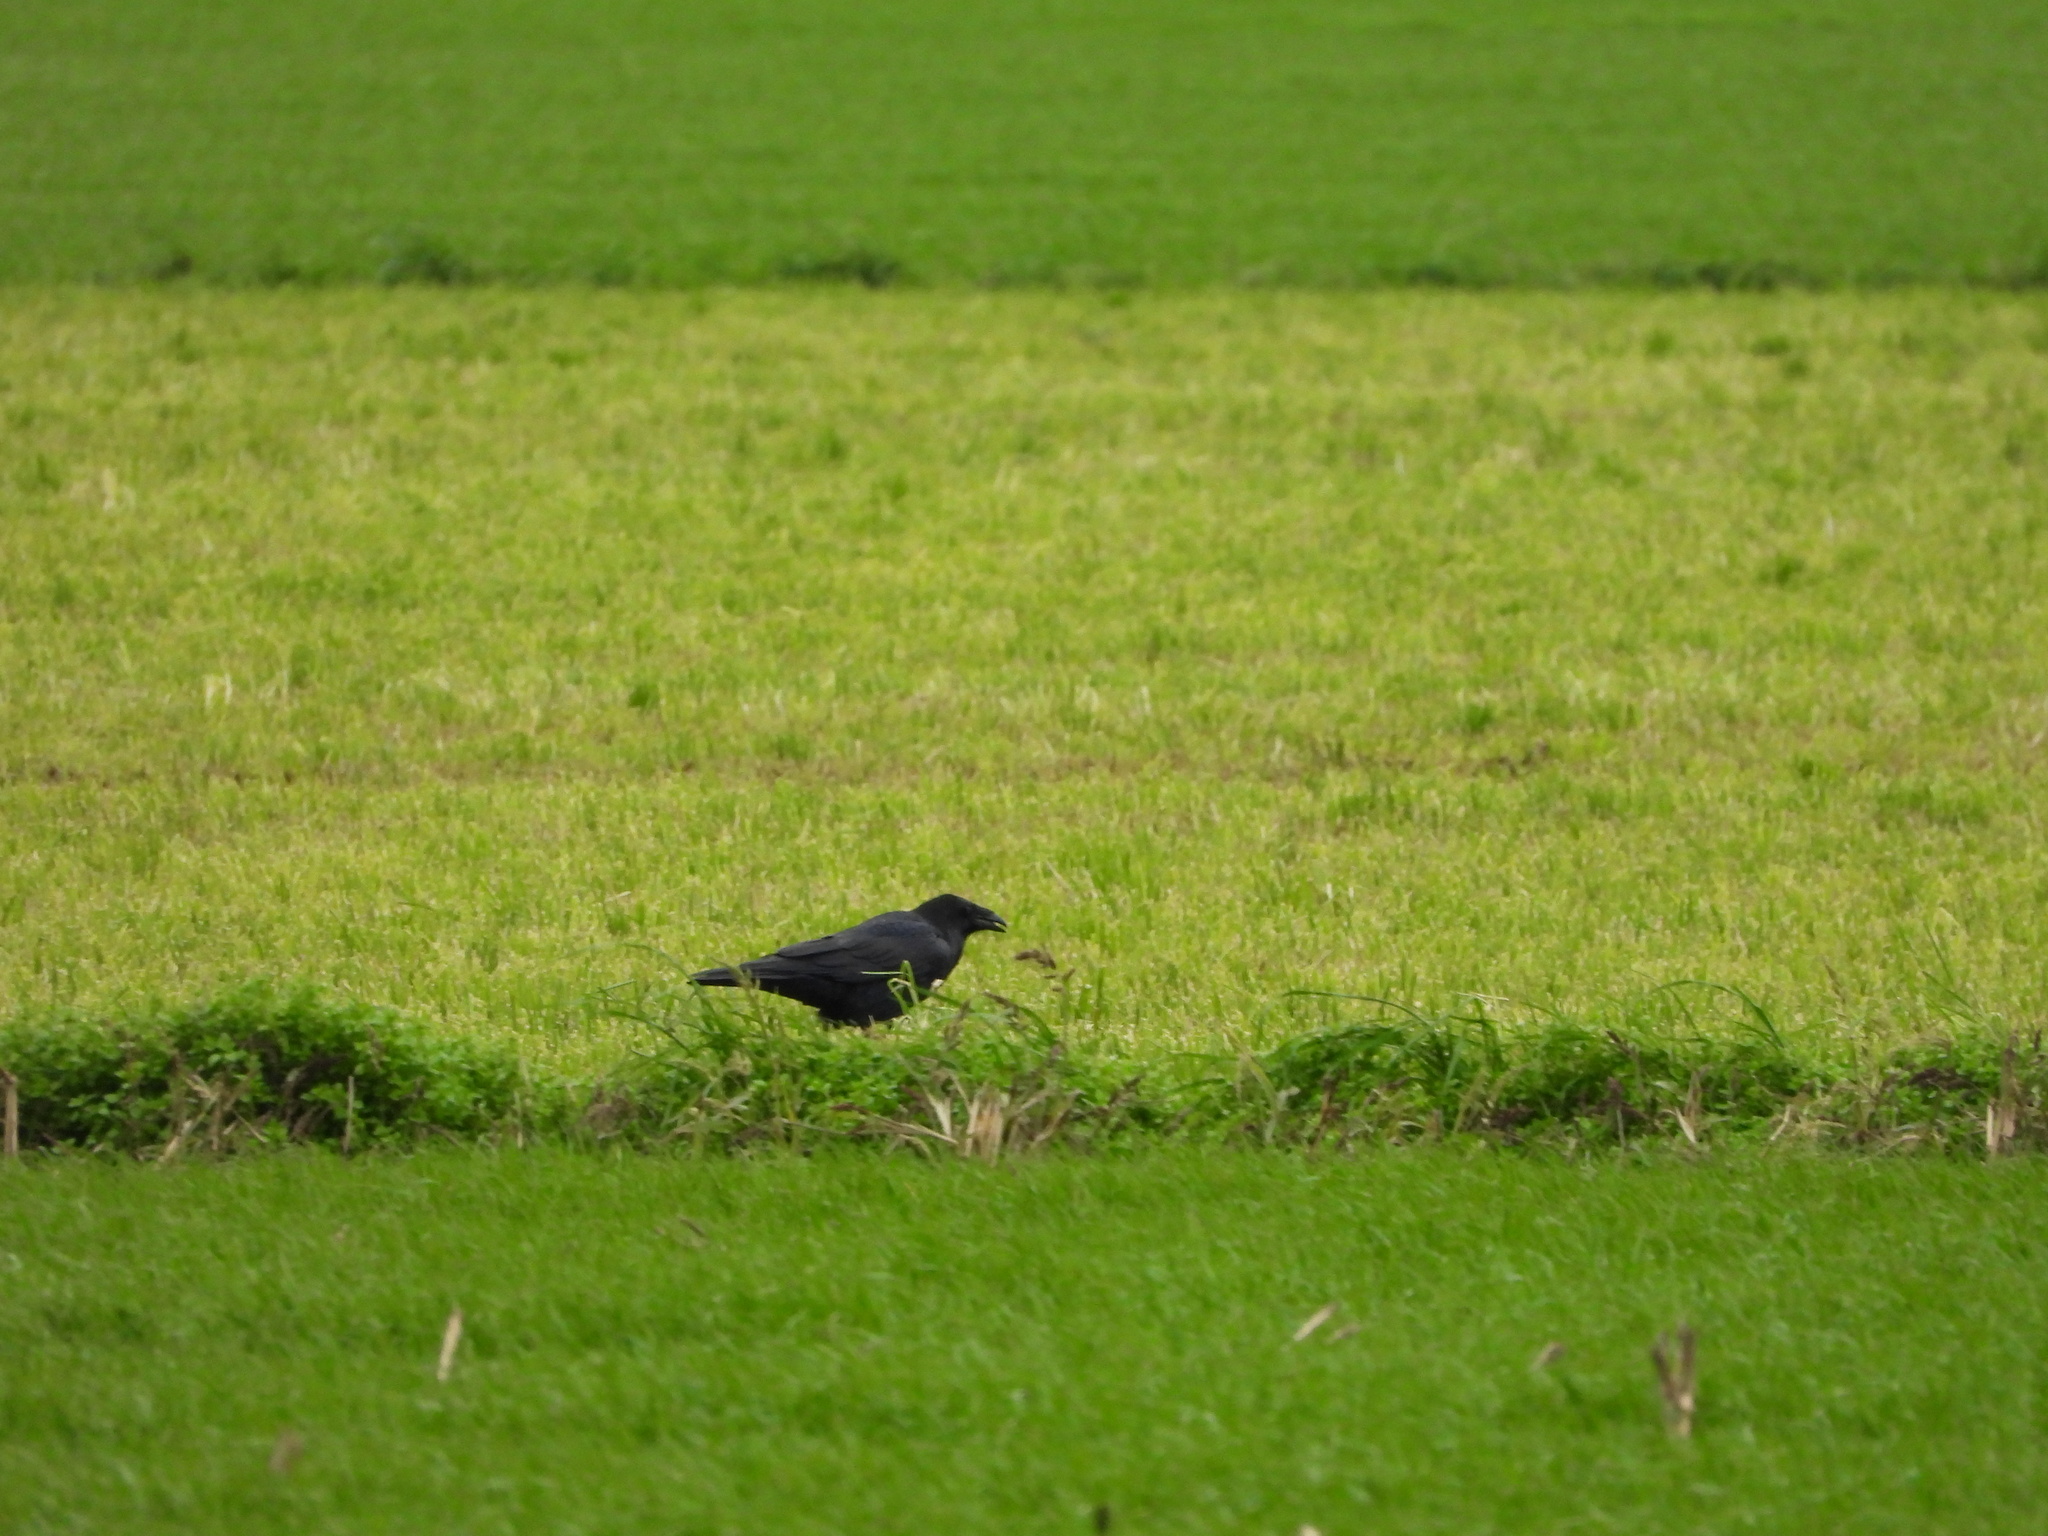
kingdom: Animalia
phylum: Chordata
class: Aves
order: Passeriformes
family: Corvidae
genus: Corvus
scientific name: Corvus corax
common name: Common raven
